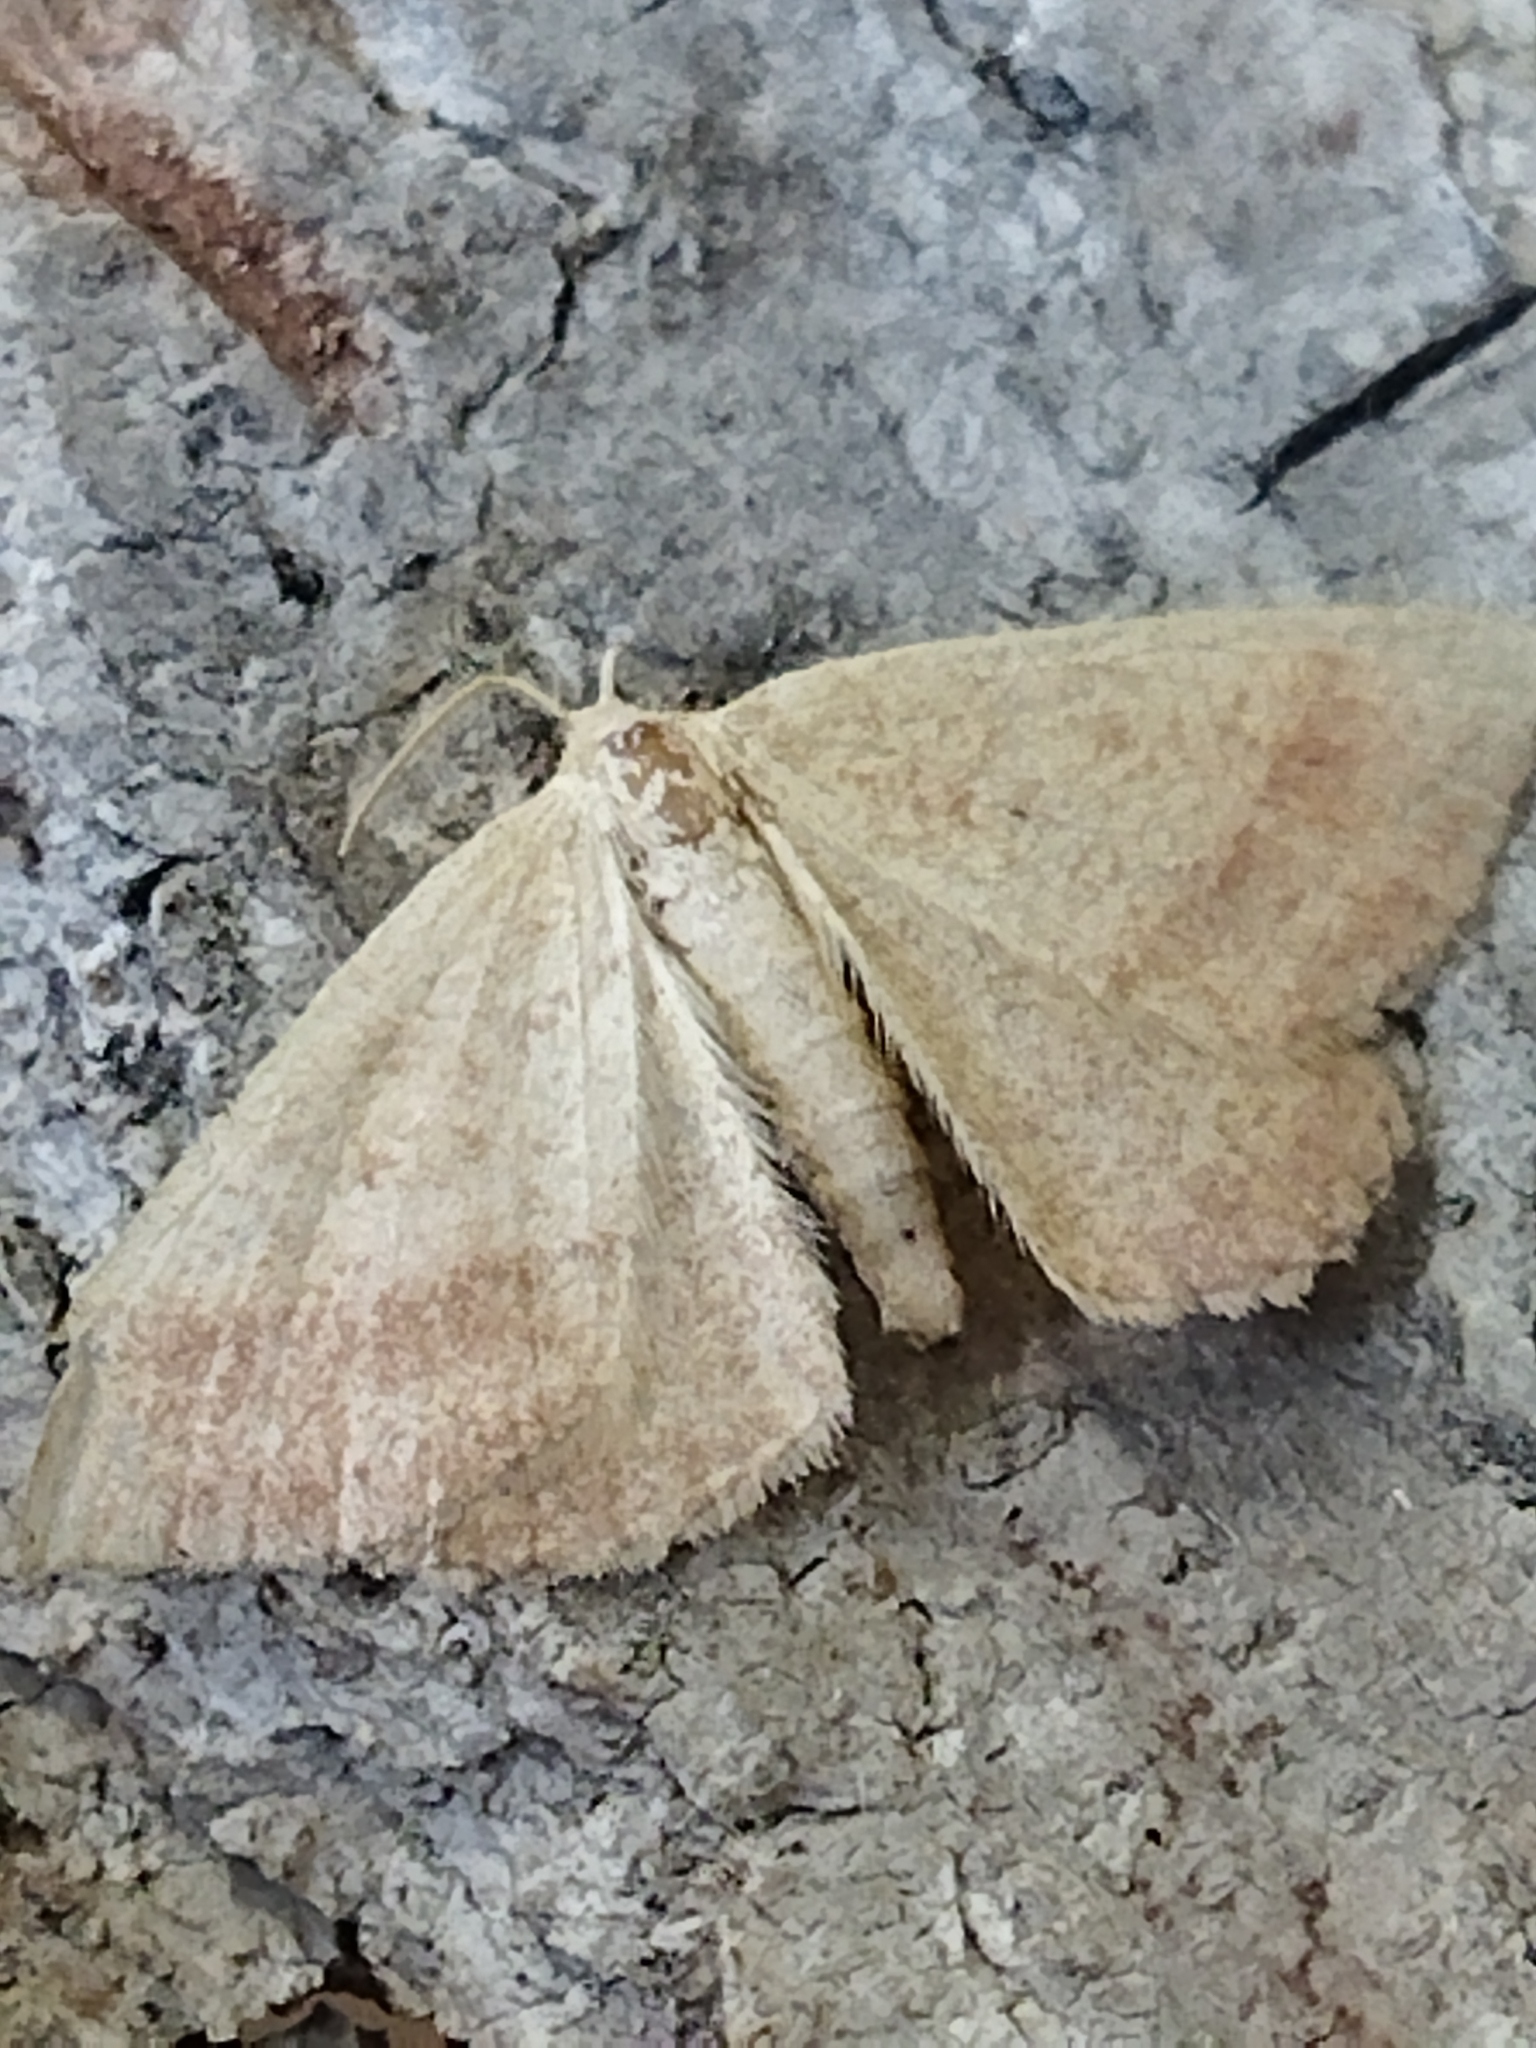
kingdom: Animalia
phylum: Arthropoda
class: Insecta
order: Lepidoptera
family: Geometridae
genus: Aplasta
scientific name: Aplasta ononaria
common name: Rest harrow
